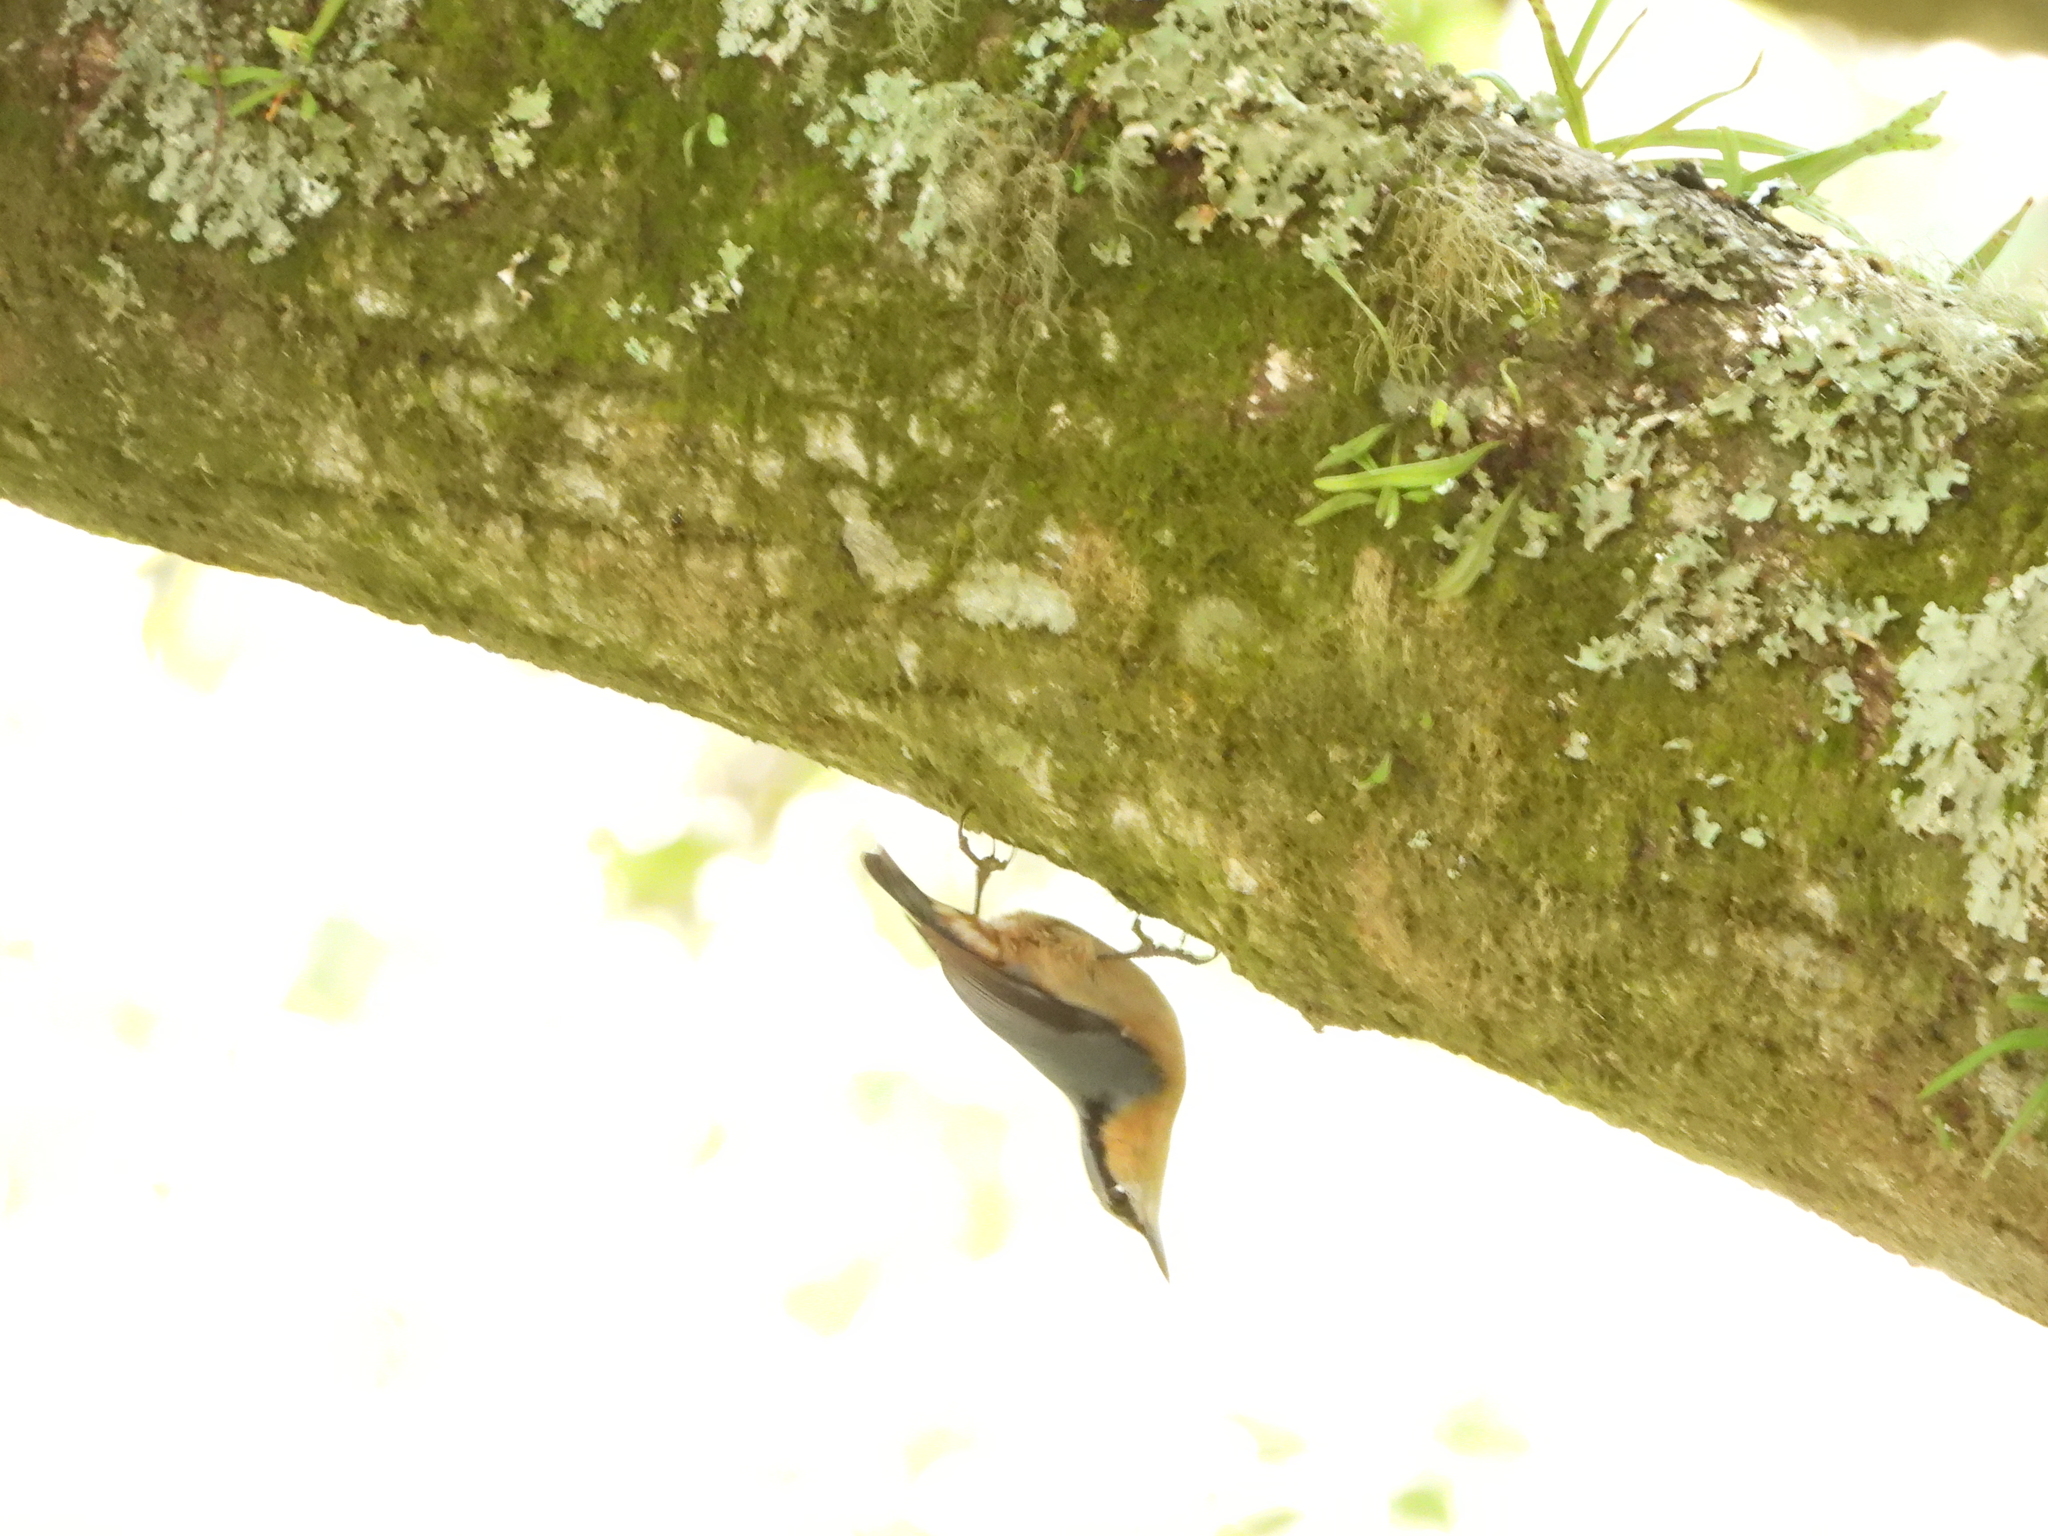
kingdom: Animalia
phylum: Chordata
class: Aves
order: Passeriformes
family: Sittidae
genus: Sitta
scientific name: Sitta europaea
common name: Eurasian nuthatch
